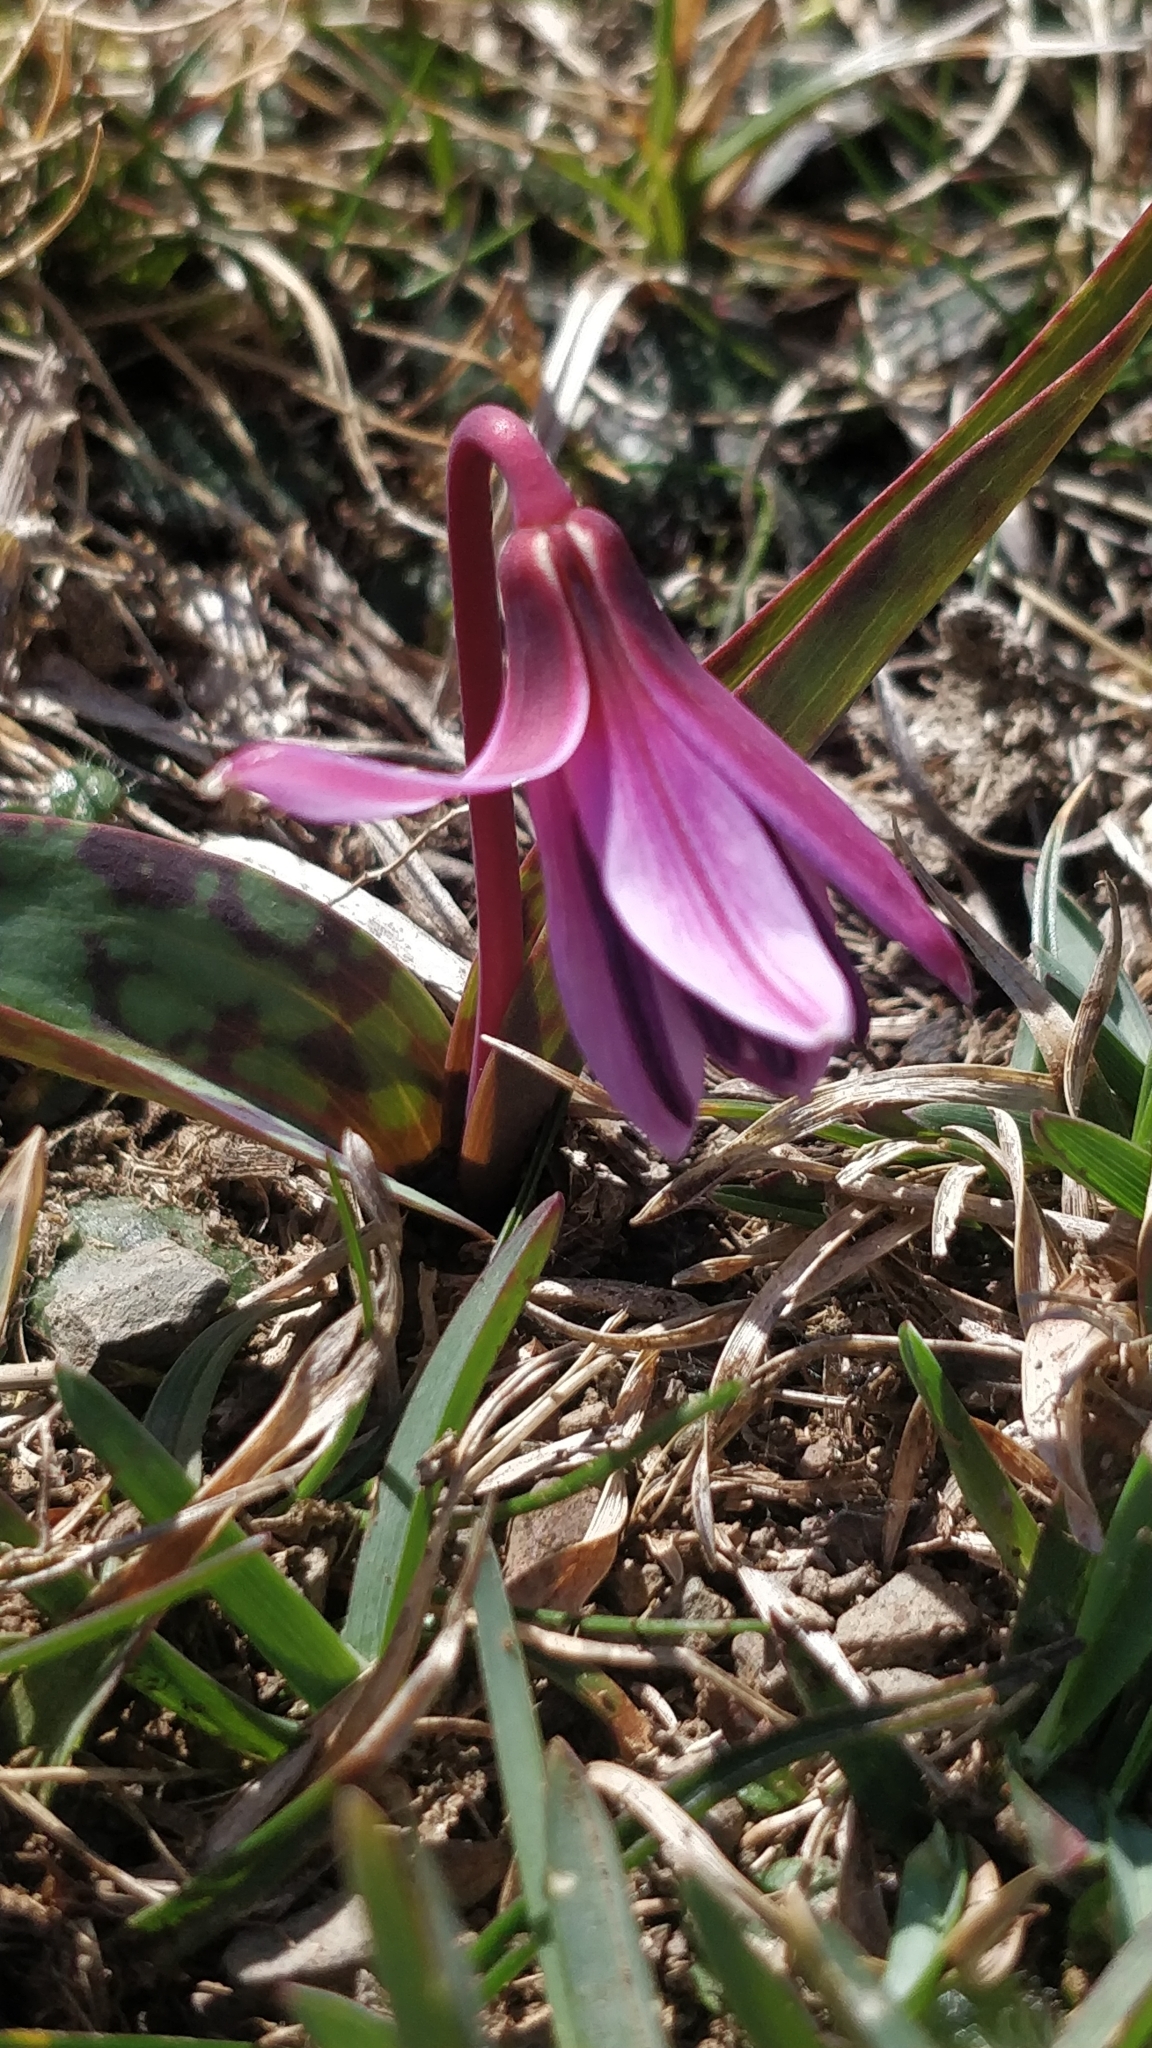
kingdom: Plantae
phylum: Tracheophyta
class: Liliopsida
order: Liliales
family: Liliaceae
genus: Erythronium
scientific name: Erythronium dens-canis
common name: Dog's-tooth-violet
